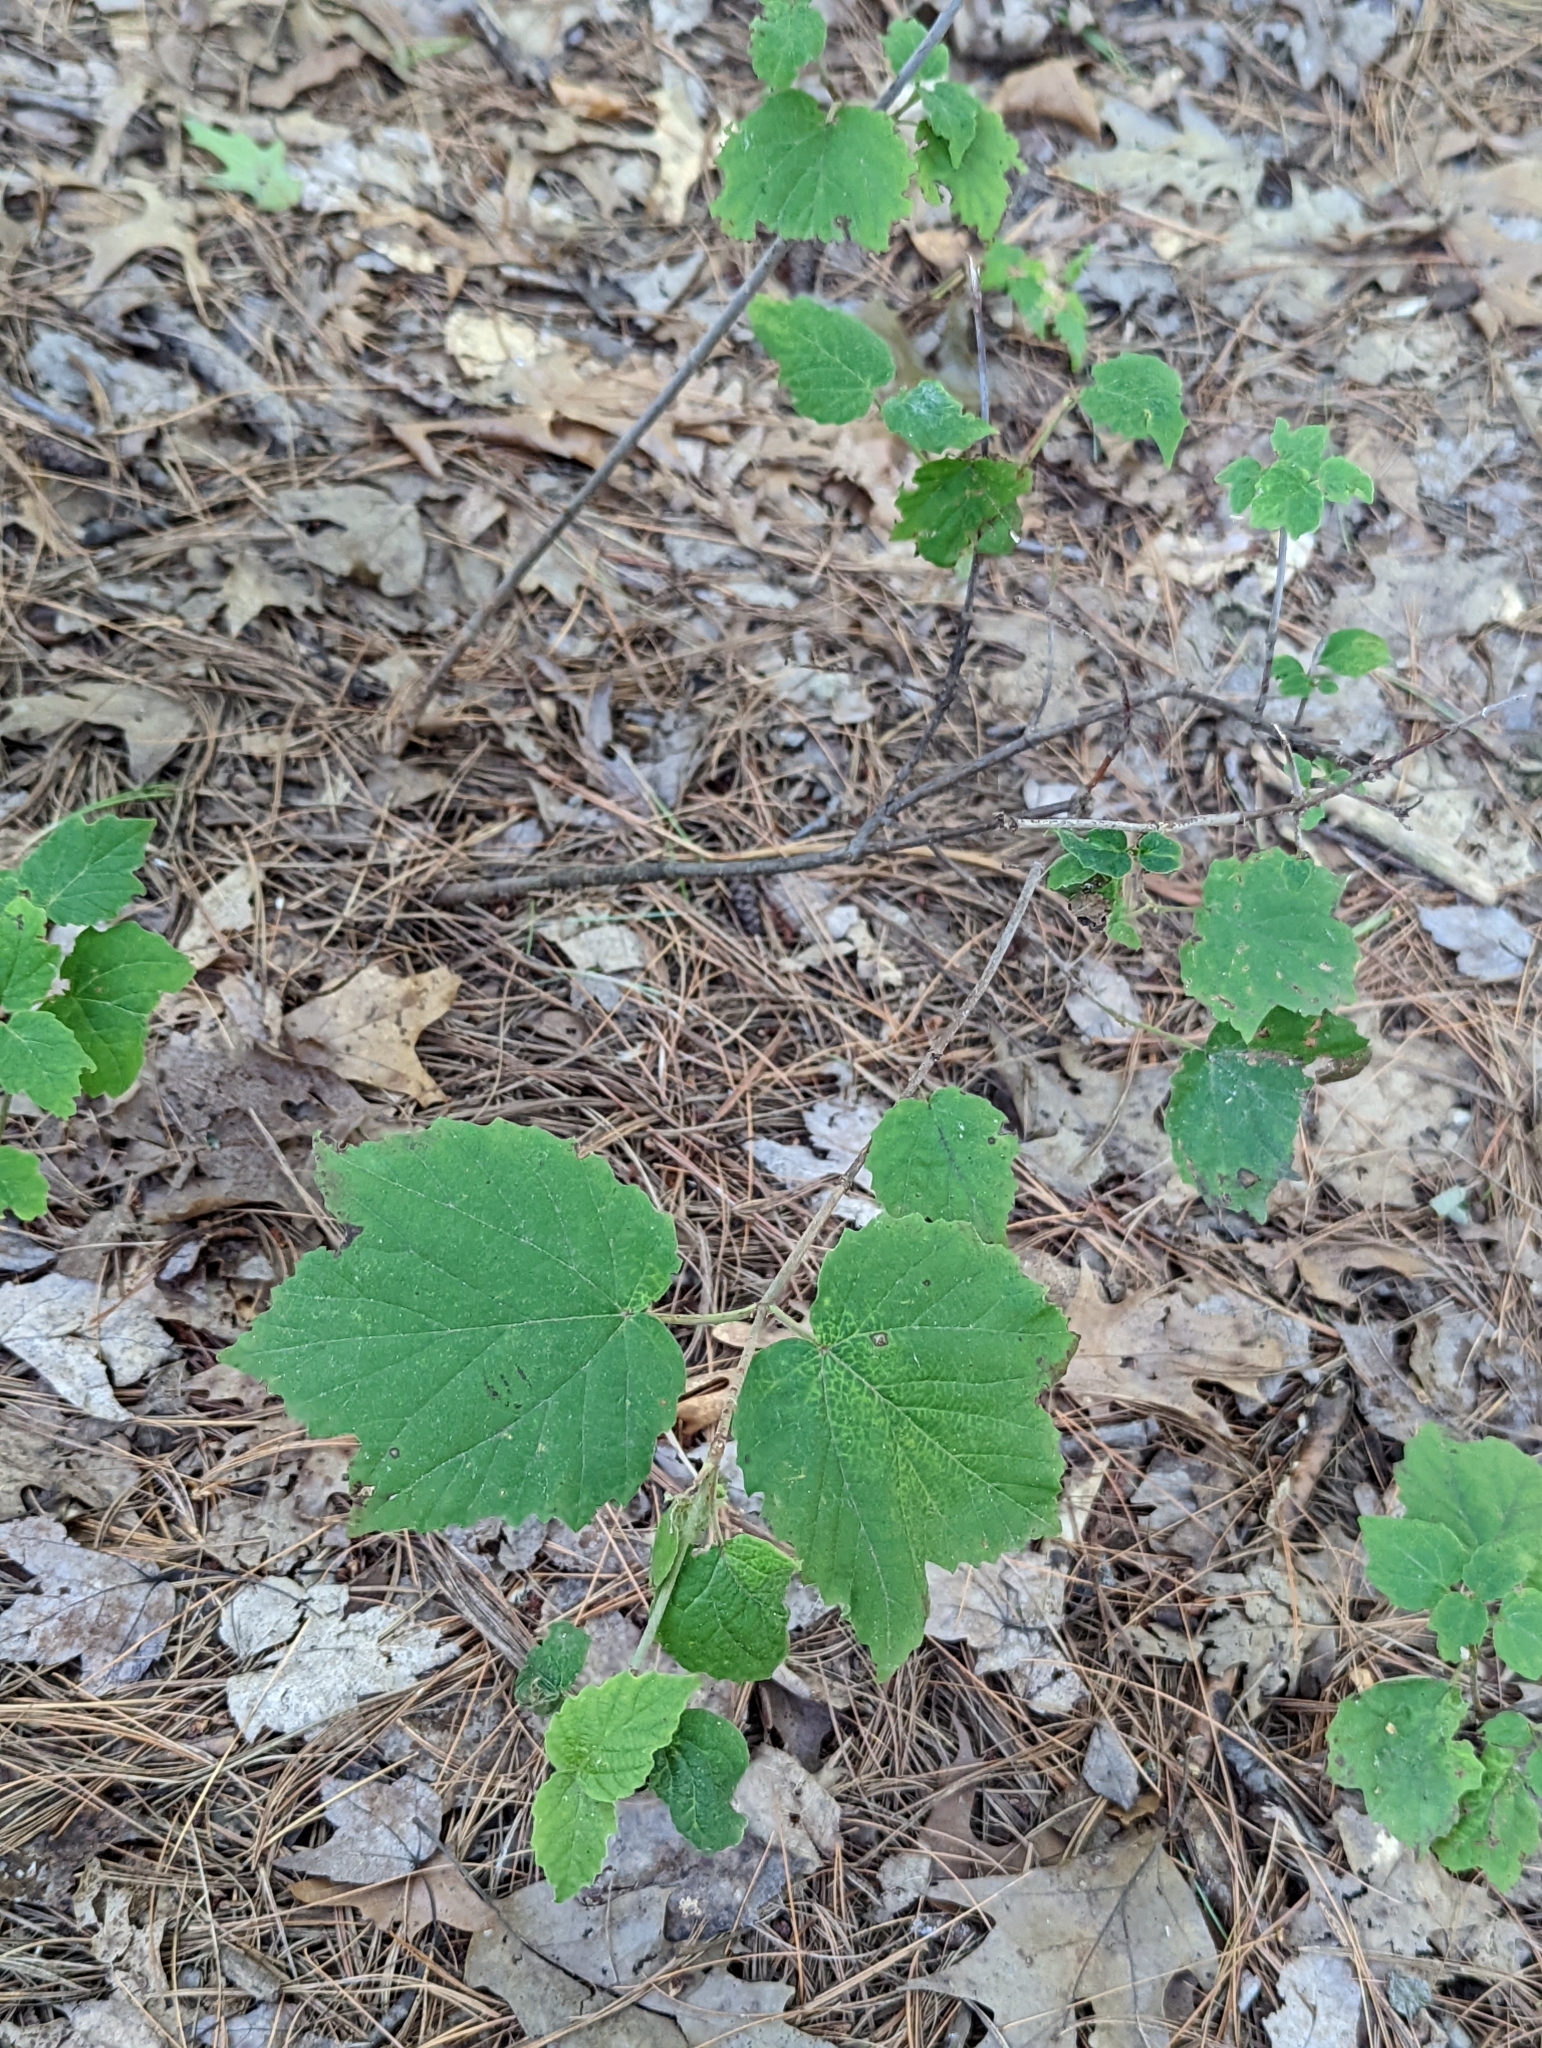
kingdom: Plantae
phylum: Tracheophyta
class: Magnoliopsida
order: Dipsacales
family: Viburnaceae
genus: Viburnum
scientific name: Viburnum acerifolium
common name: Dockmackie
